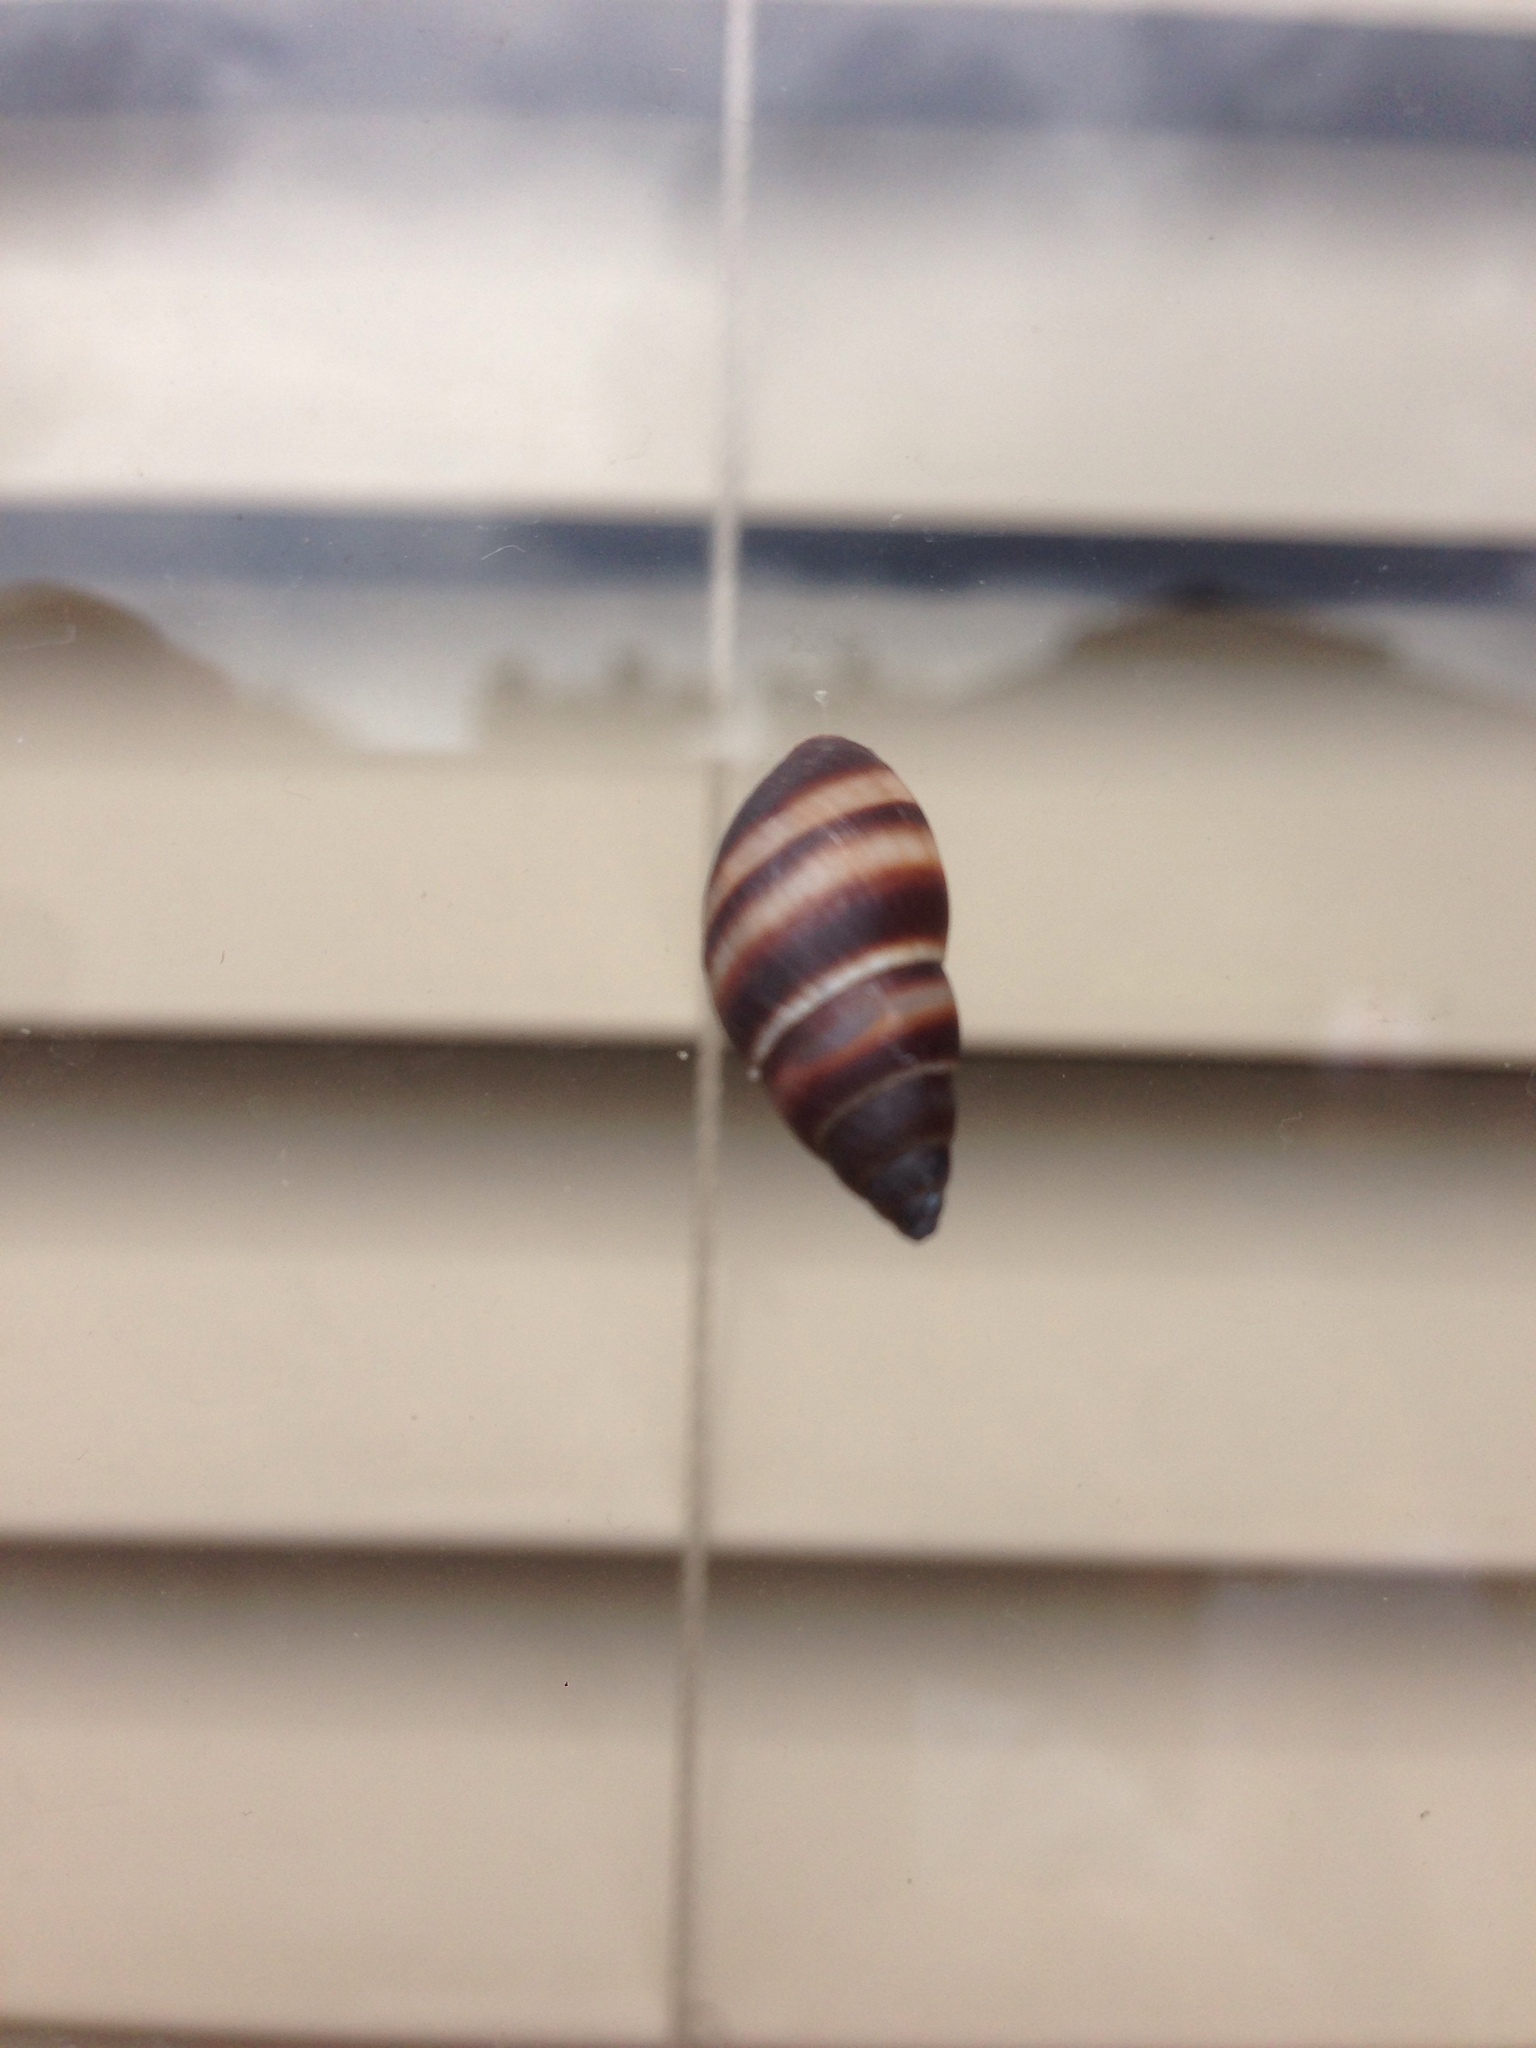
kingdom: Animalia
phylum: Mollusca
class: Gastropoda
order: Stylommatophora
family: Bulimulidae
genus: Bulimulus
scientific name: Bulimulus guadalupensis
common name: West indian bulimulus
